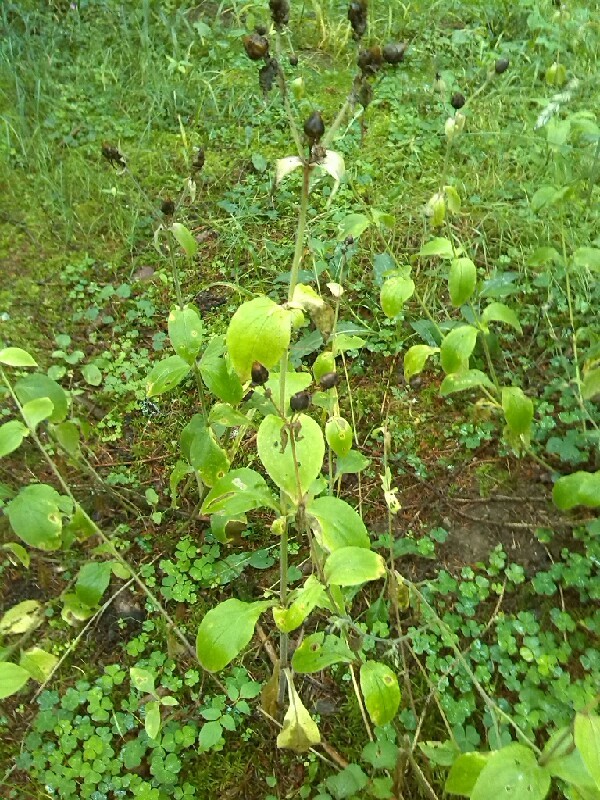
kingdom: Plantae
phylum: Tracheophyta
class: Magnoliopsida
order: Caryophyllales
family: Caryophyllaceae
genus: Silene
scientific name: Silene dioica
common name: Red campion
